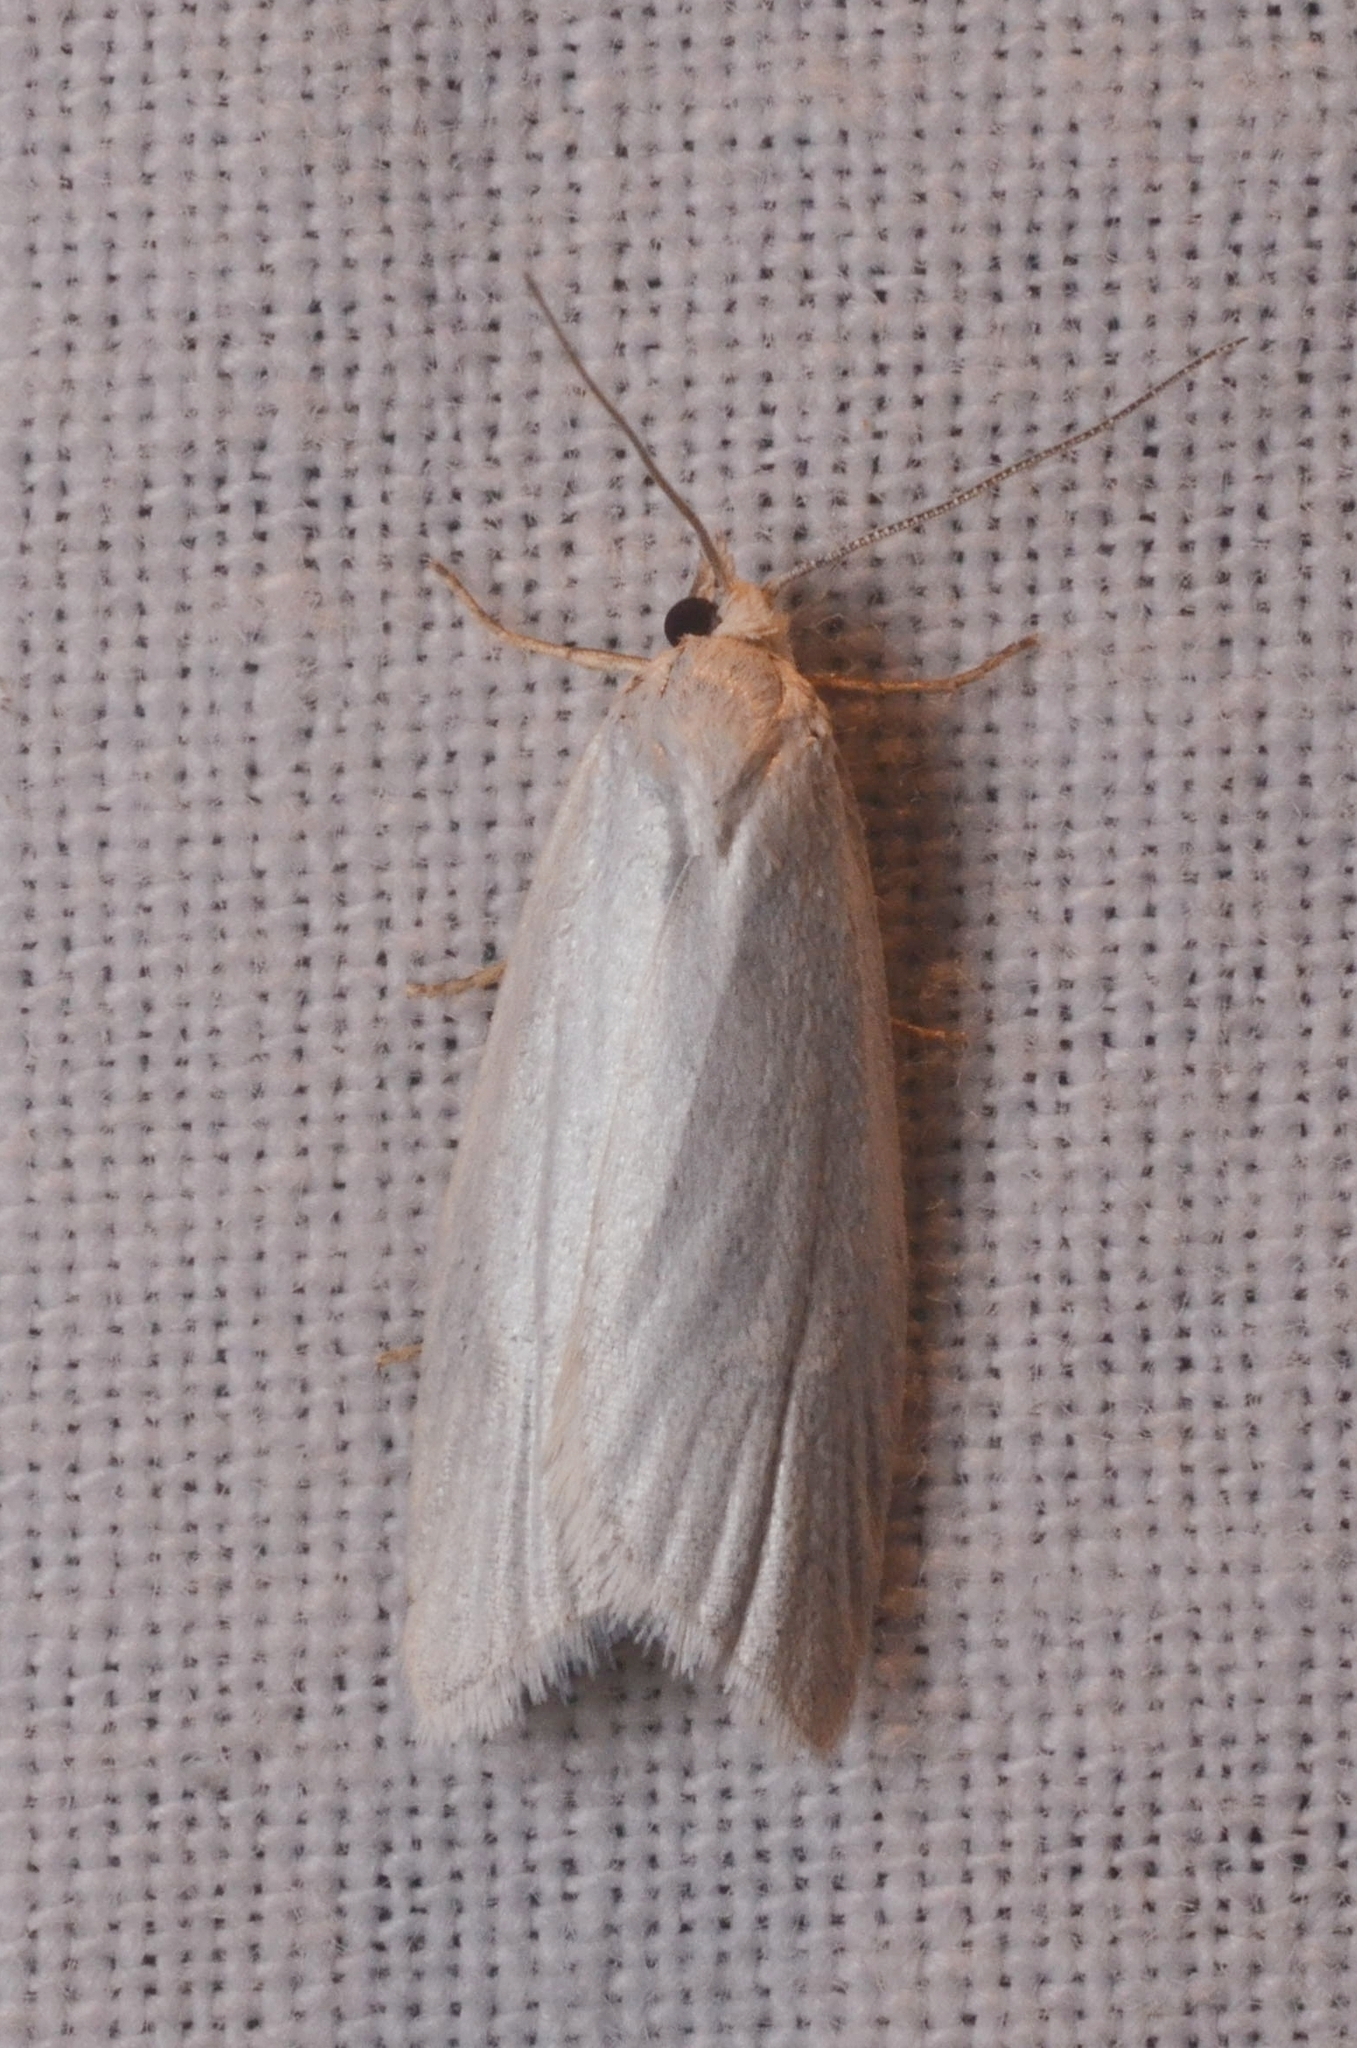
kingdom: Animalia
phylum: Arthropoda
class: Insecta
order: Lepidoptera
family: Tortricidae
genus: Eana
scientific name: Eana argentana
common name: Silver shade
